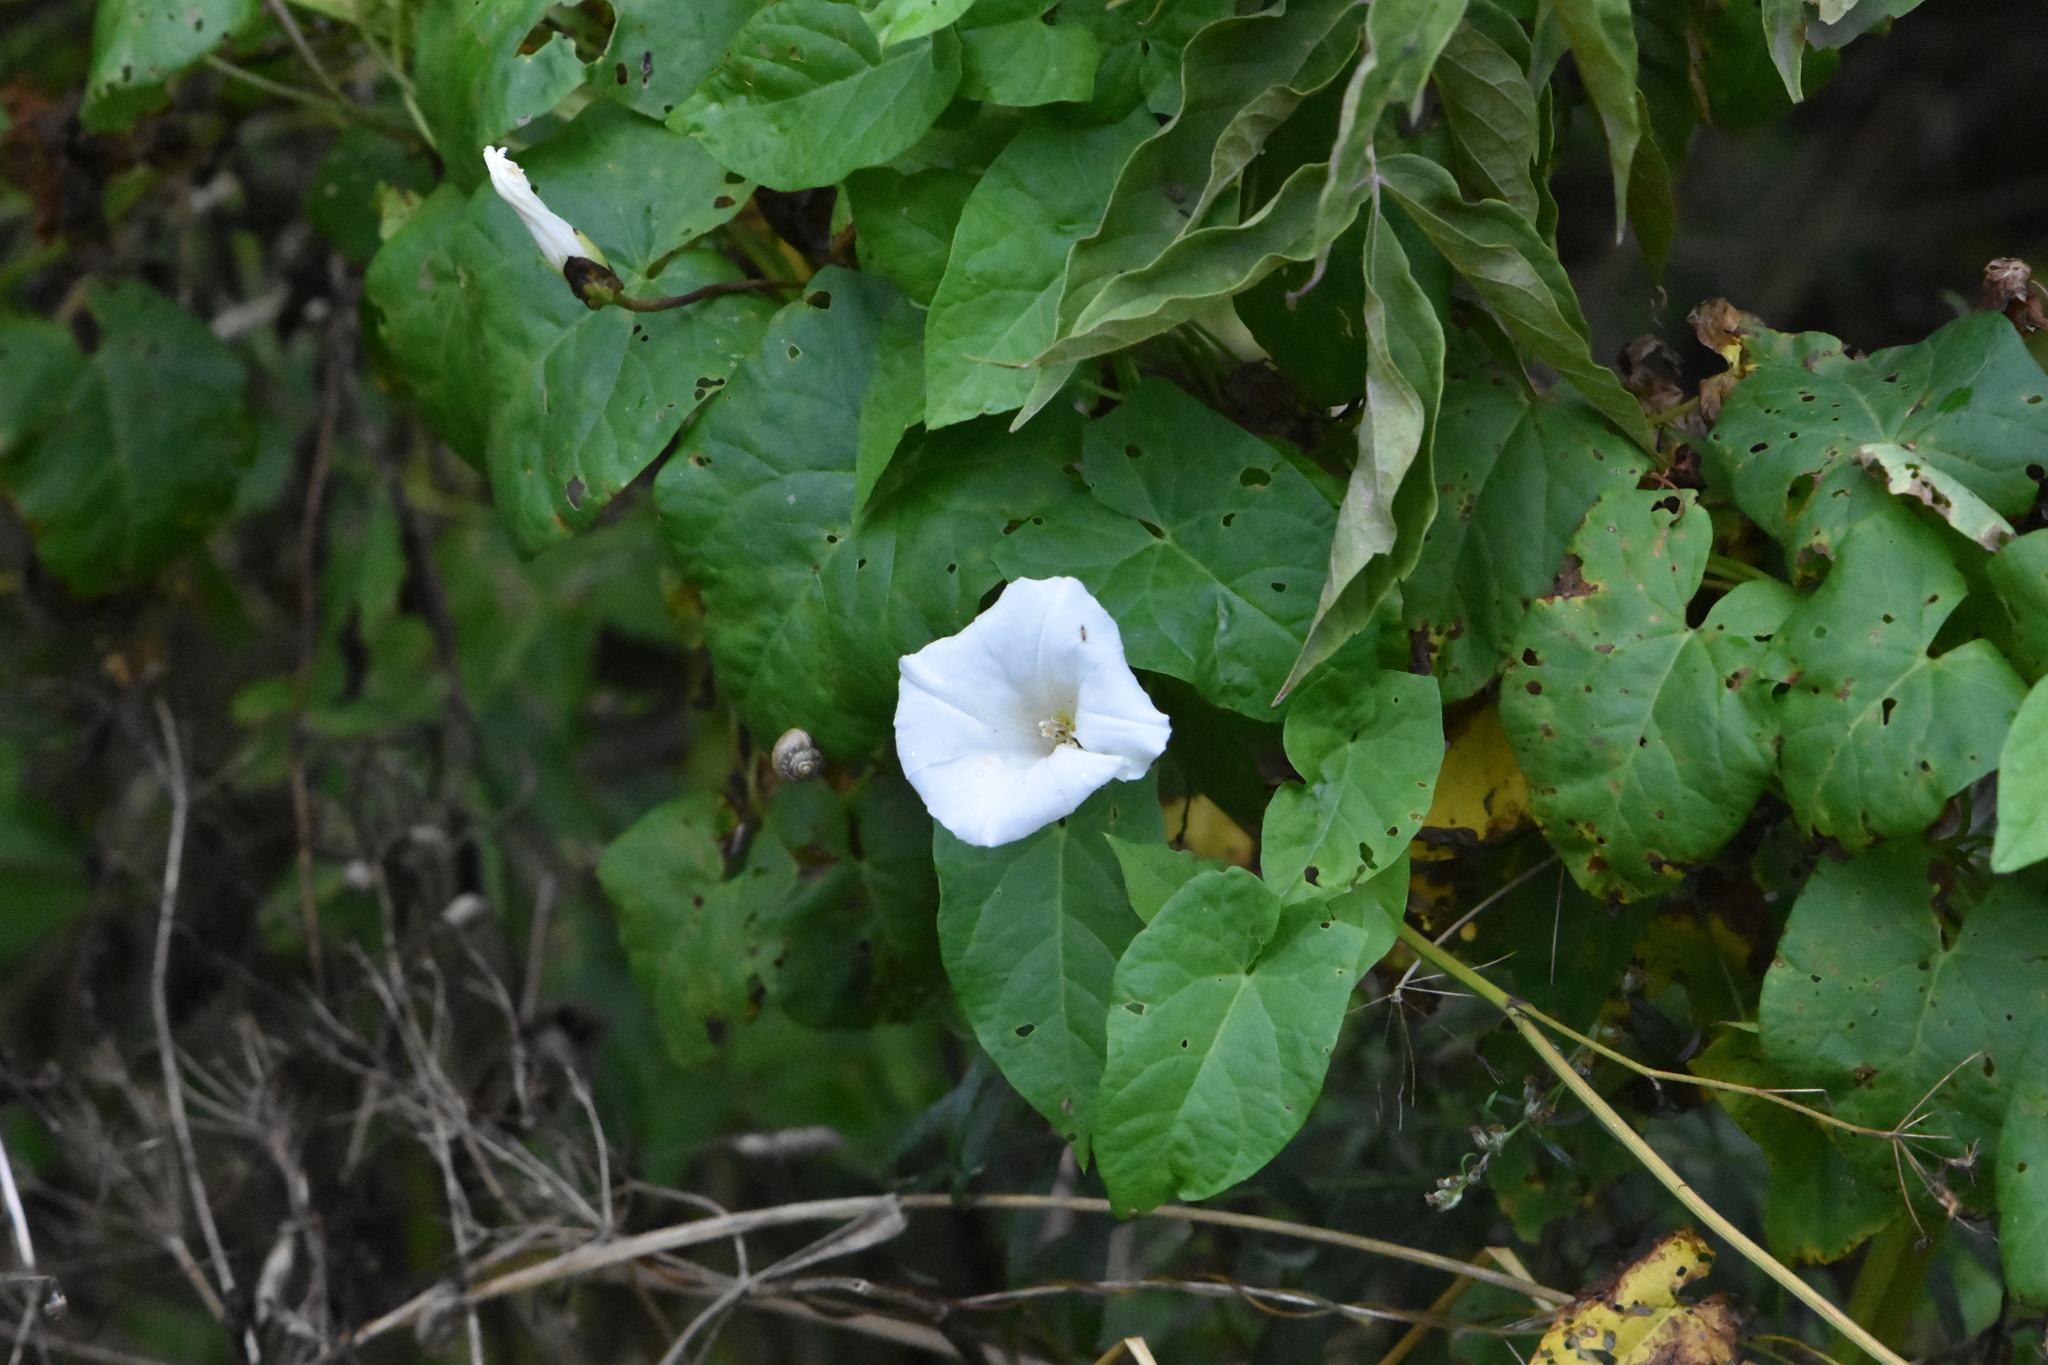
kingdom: Plantae
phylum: Tracheophyta
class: Magnoliopsida
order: Solanales
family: Convolvulaceae
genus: Calystegia
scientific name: Calystegia sepium
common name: Hedge bindweed
